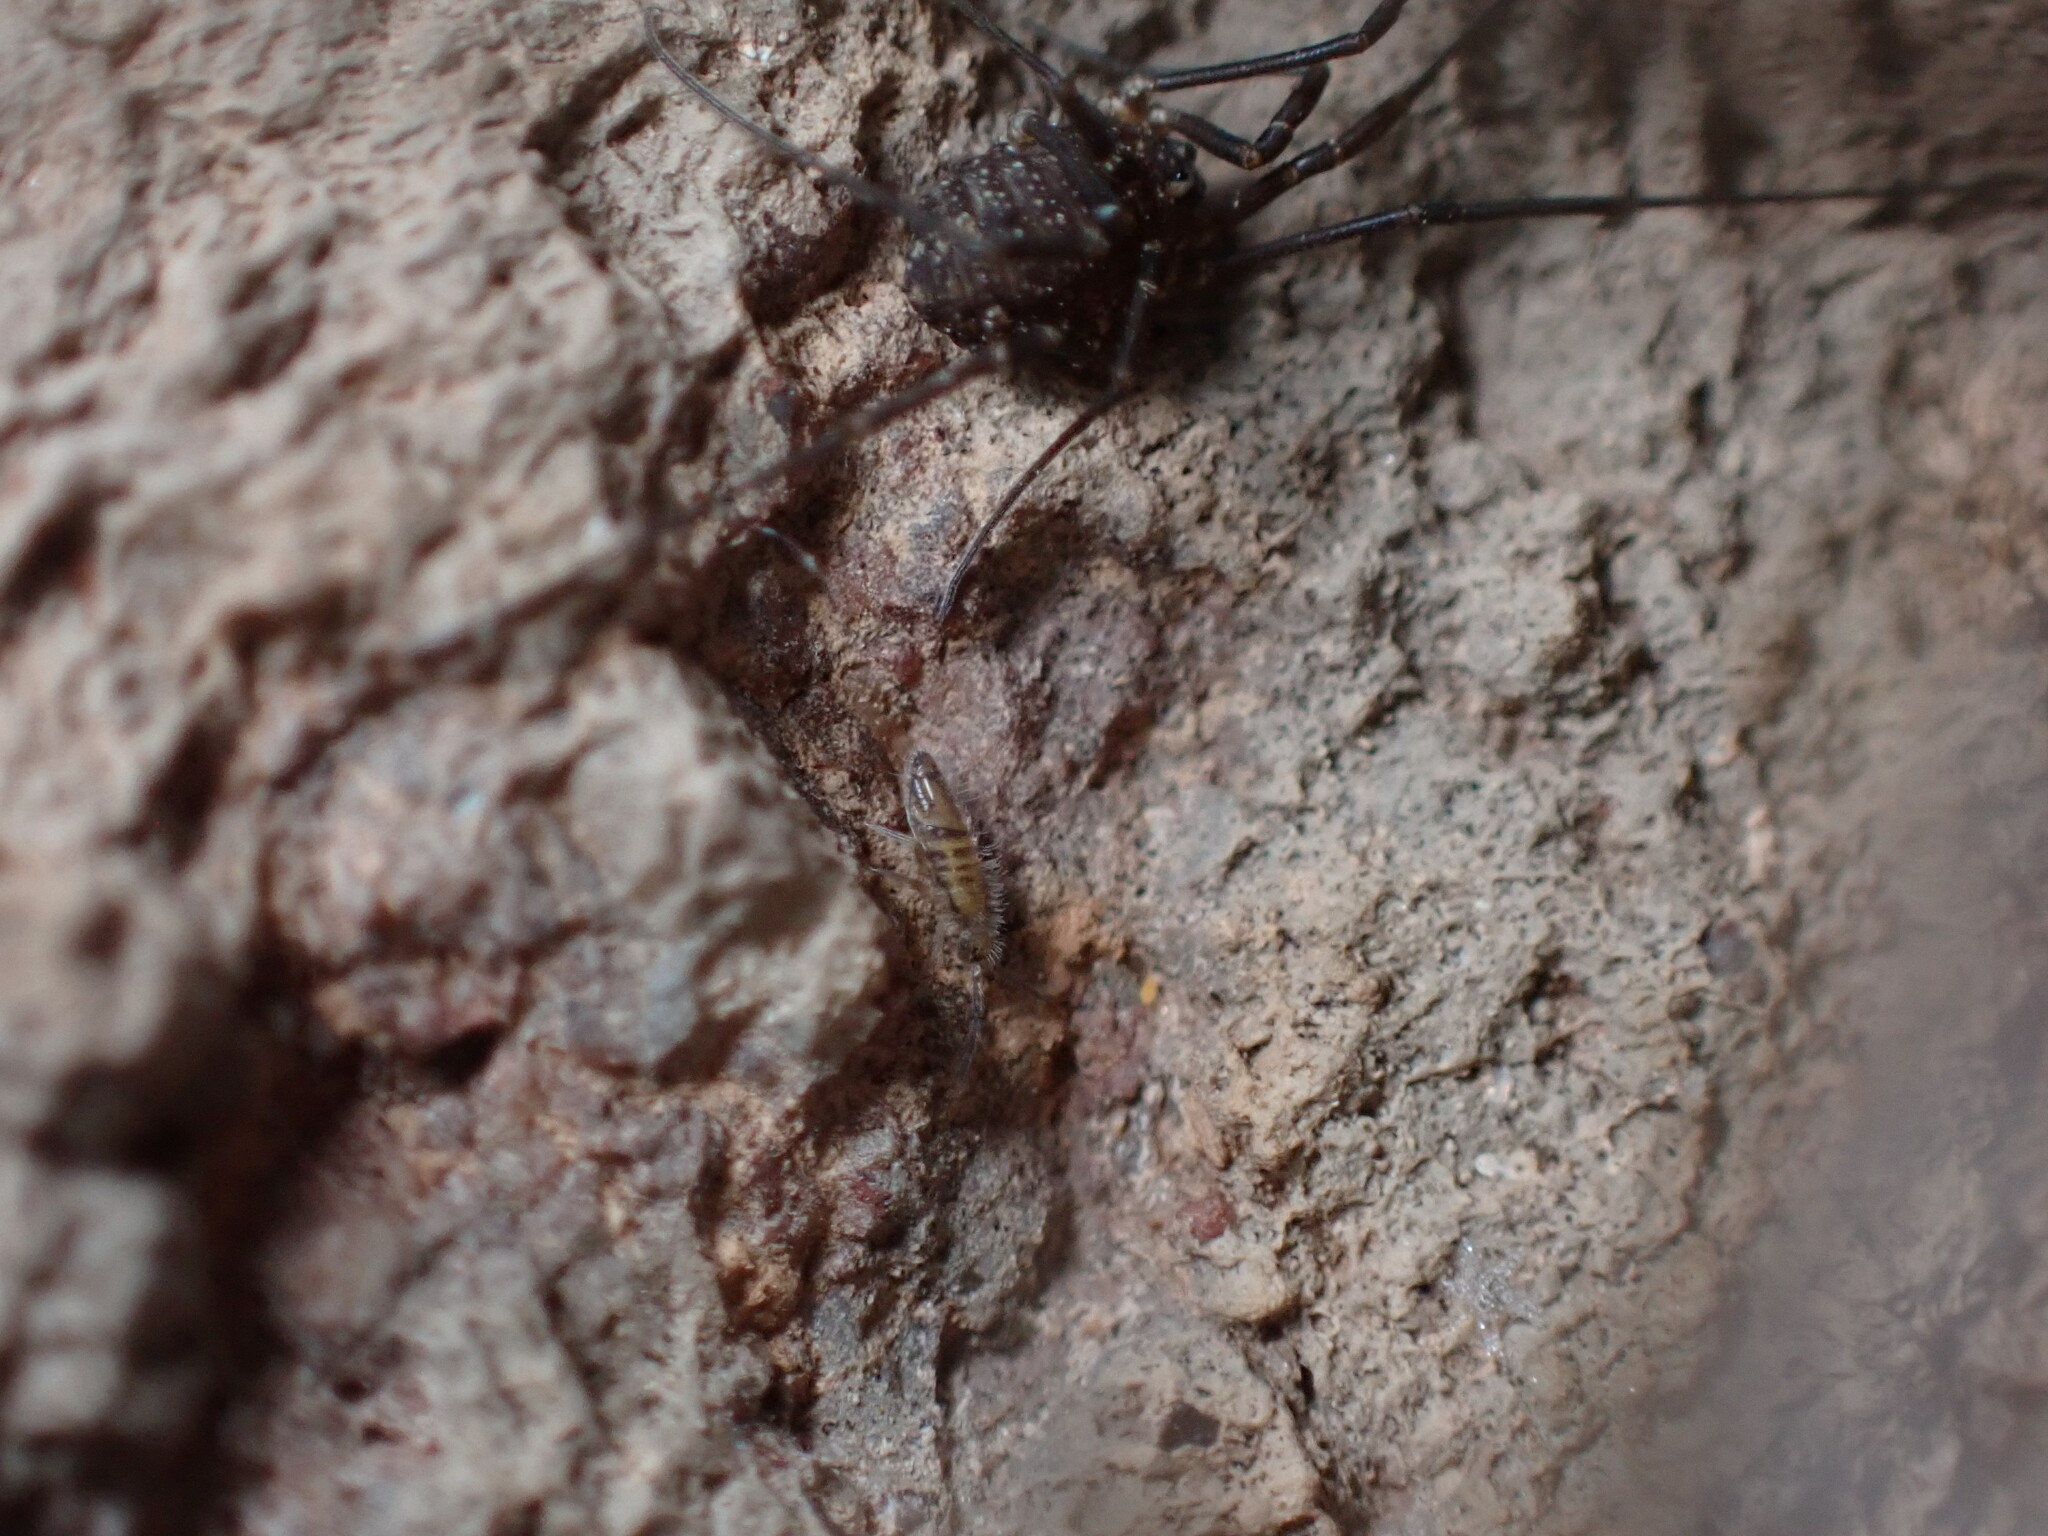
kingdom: Animalia
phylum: Arthropoda
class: Collembola
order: Entomobryomorpha
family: Entomobryidae
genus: Entomobrya
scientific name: Entomobrya zona
